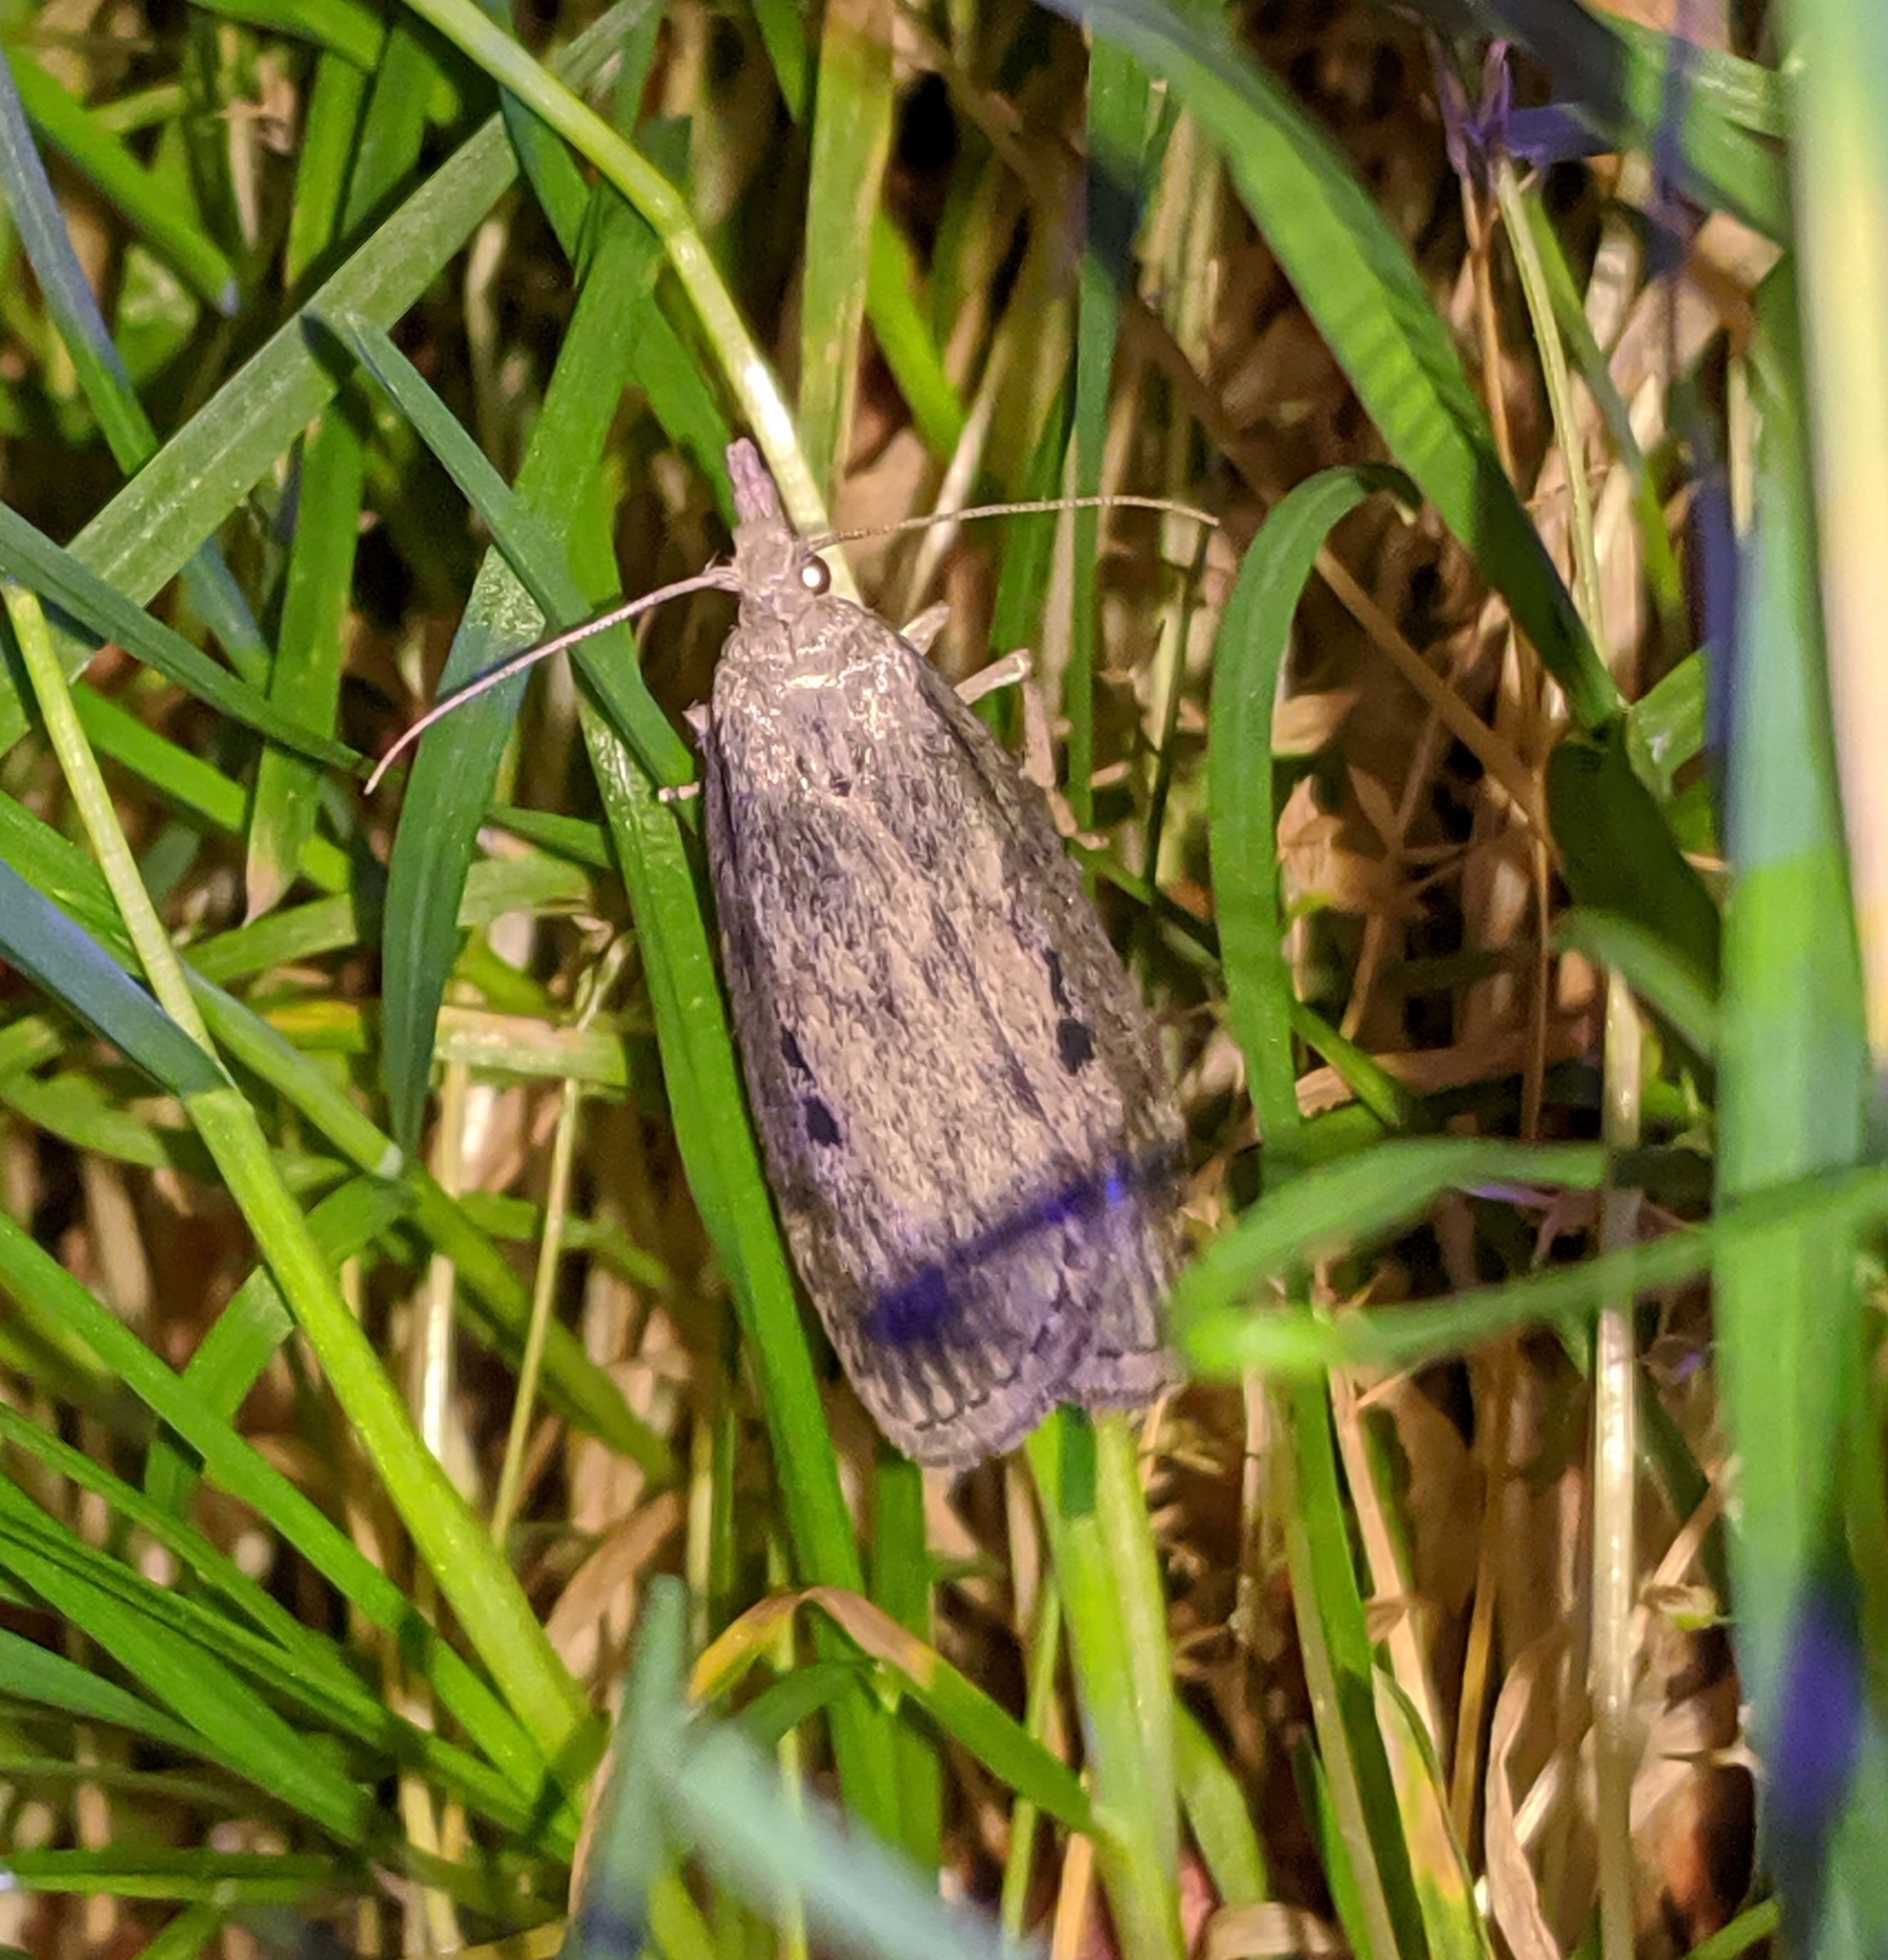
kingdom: Animalia
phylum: Arthropoda
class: Insecta
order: Lepidoptera
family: Pyralidae
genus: Aphomia
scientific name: Aphomia sociella
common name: Bee moth
